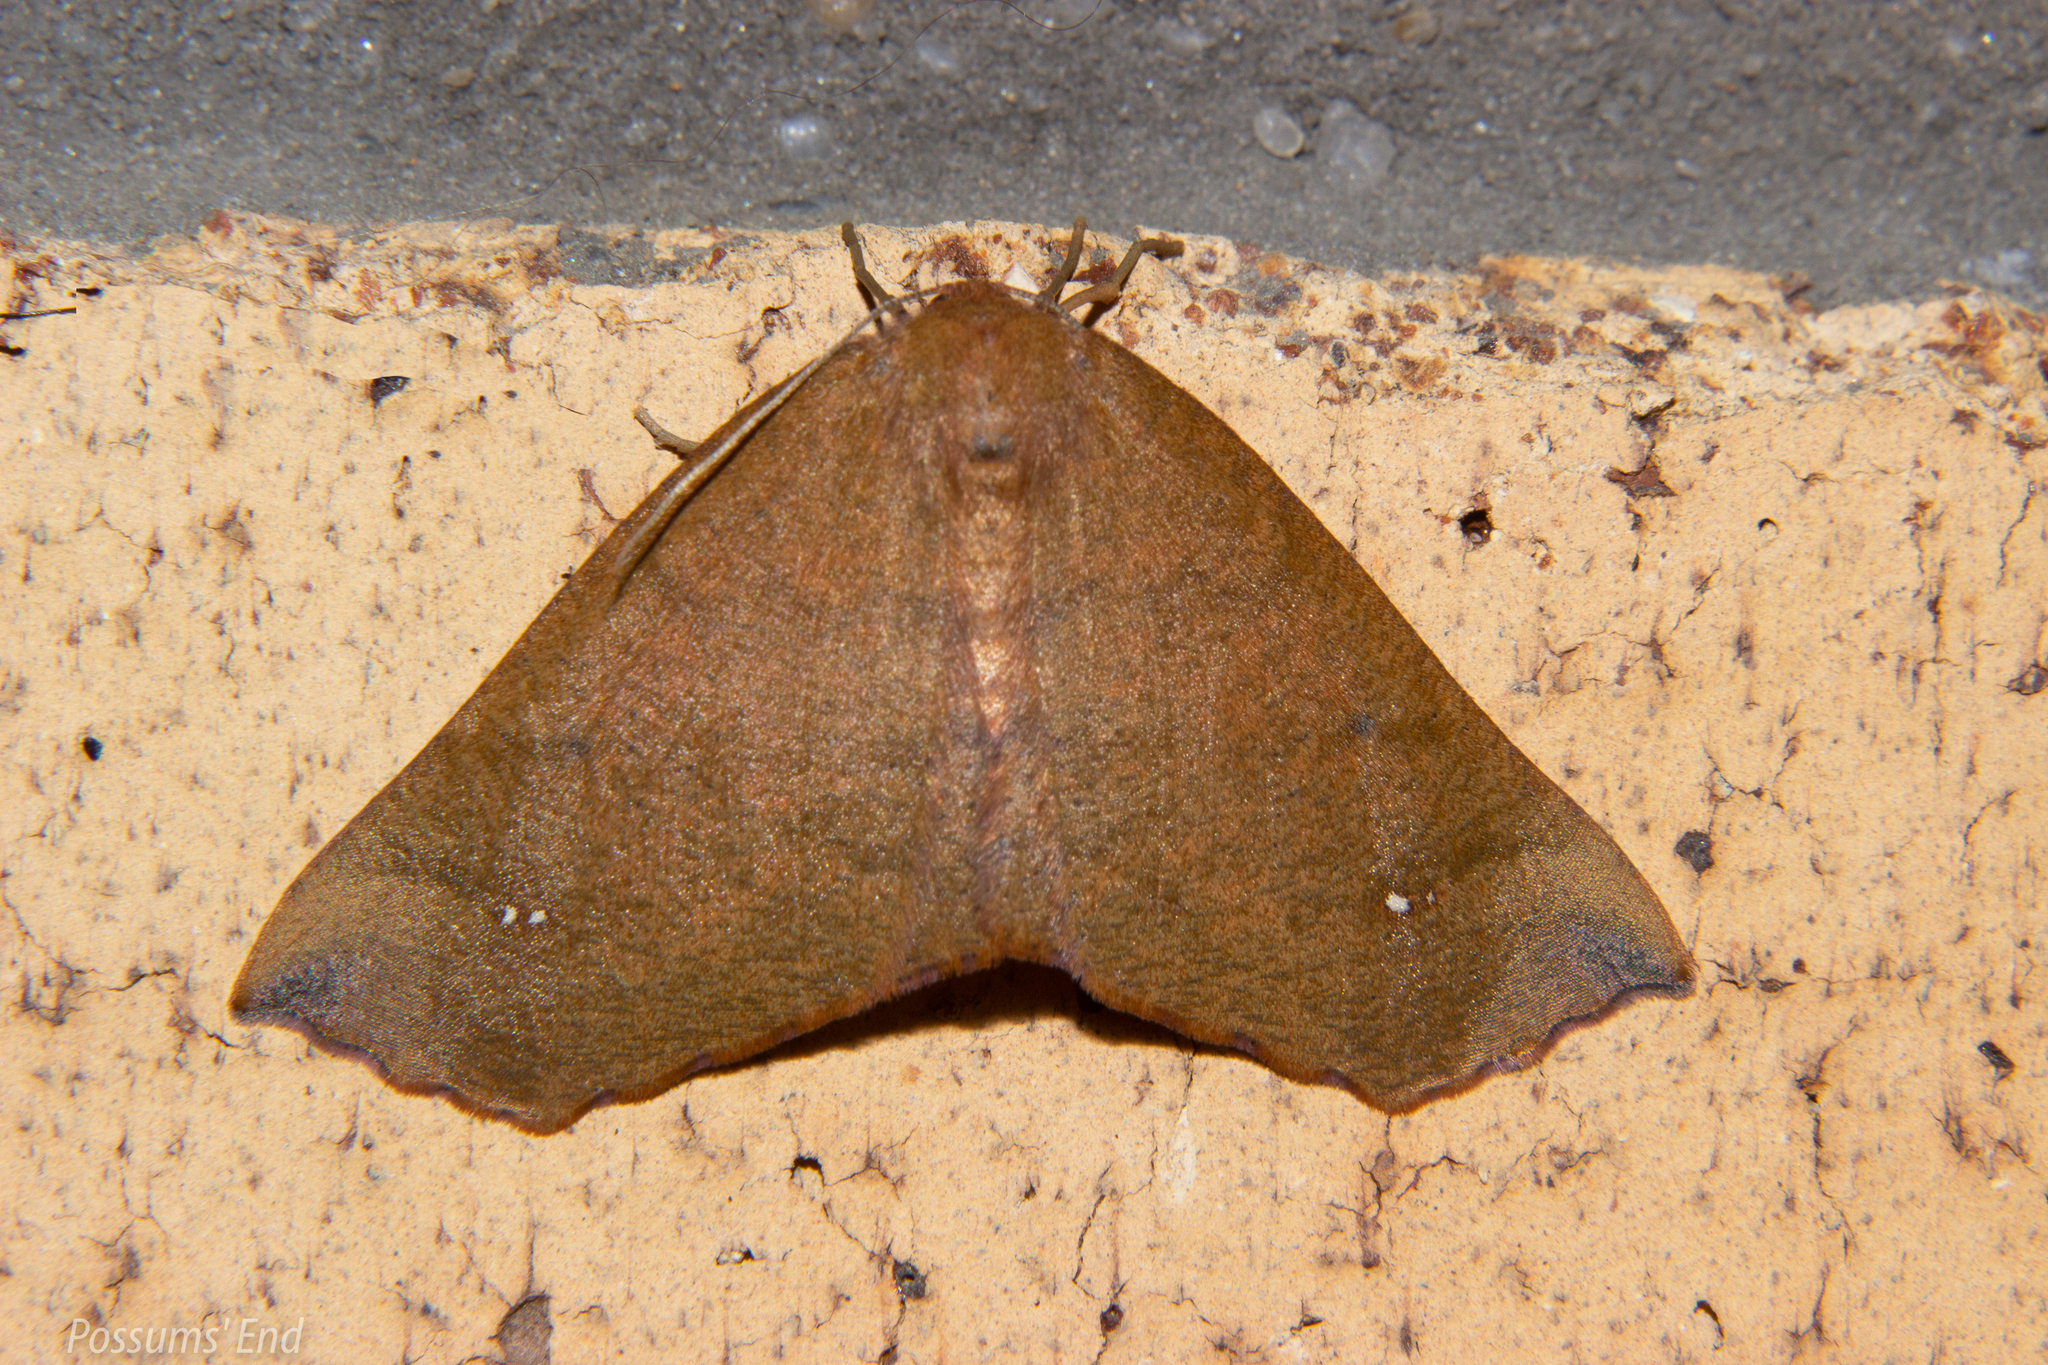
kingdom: Animalia
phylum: Arthropoda
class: Insecta
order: Lepidoptera
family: Geometridae
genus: Xyridacma
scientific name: Xyridacma ustaria
